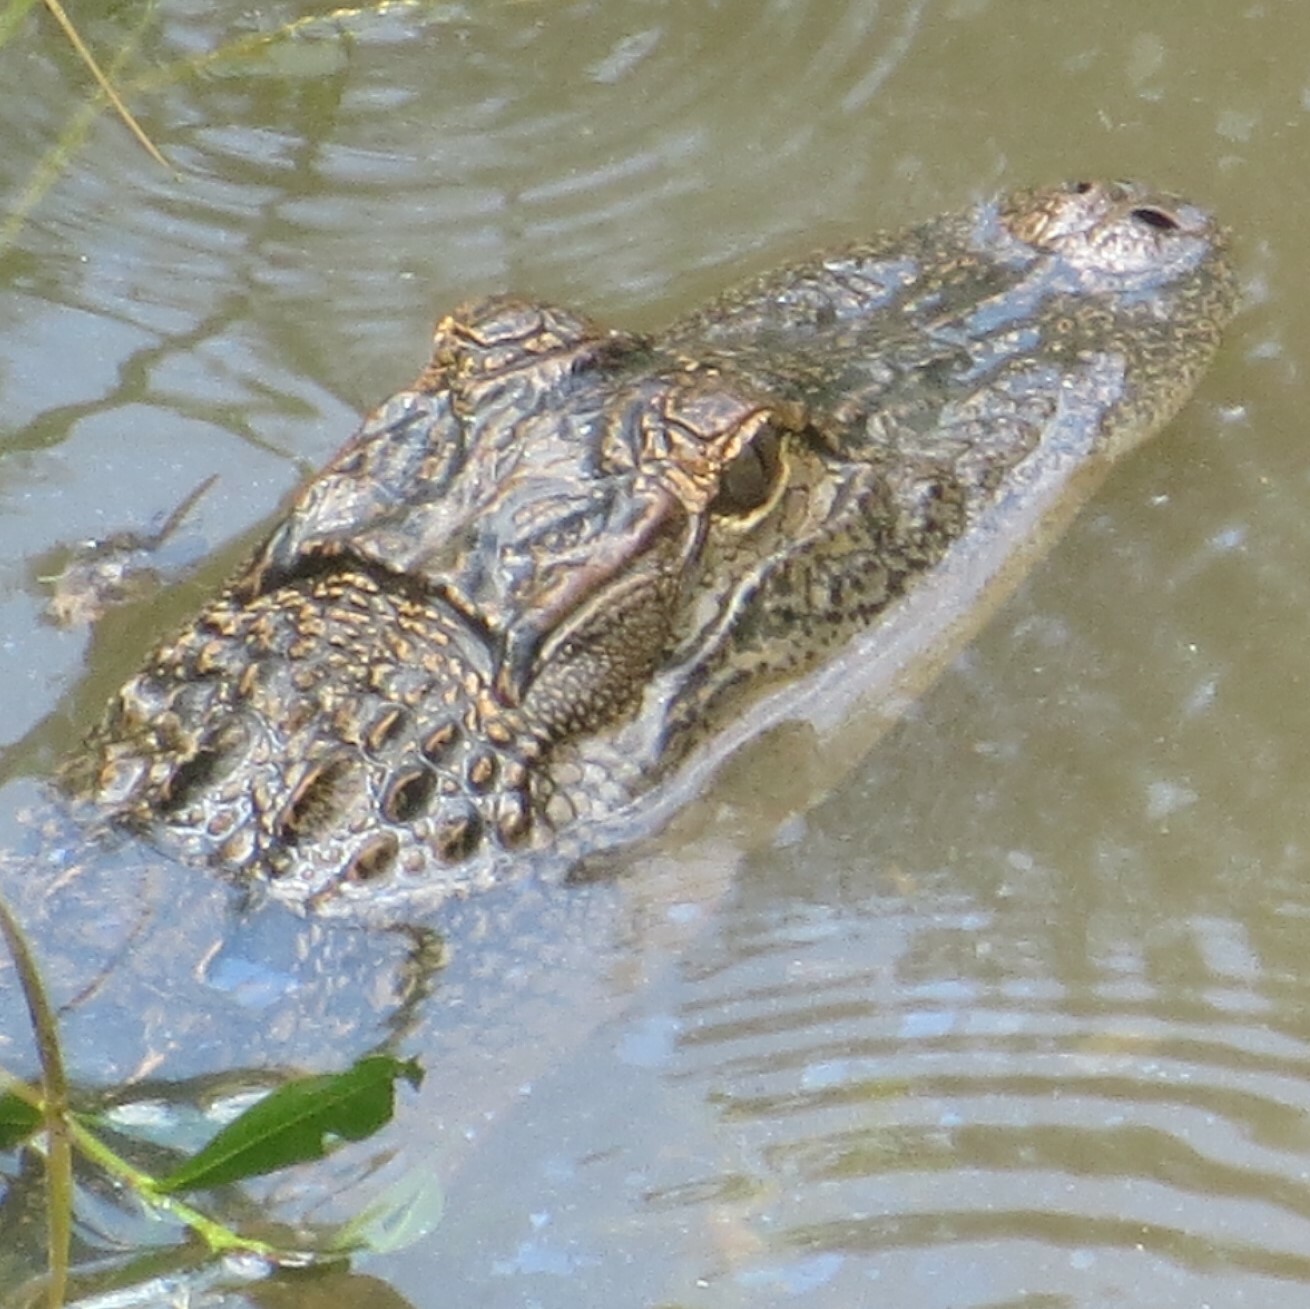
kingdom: Animalia
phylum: Chordata
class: Crocodylia
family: Alligatoridae
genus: Alligator
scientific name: Alligator mississippiensis
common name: American alligator
